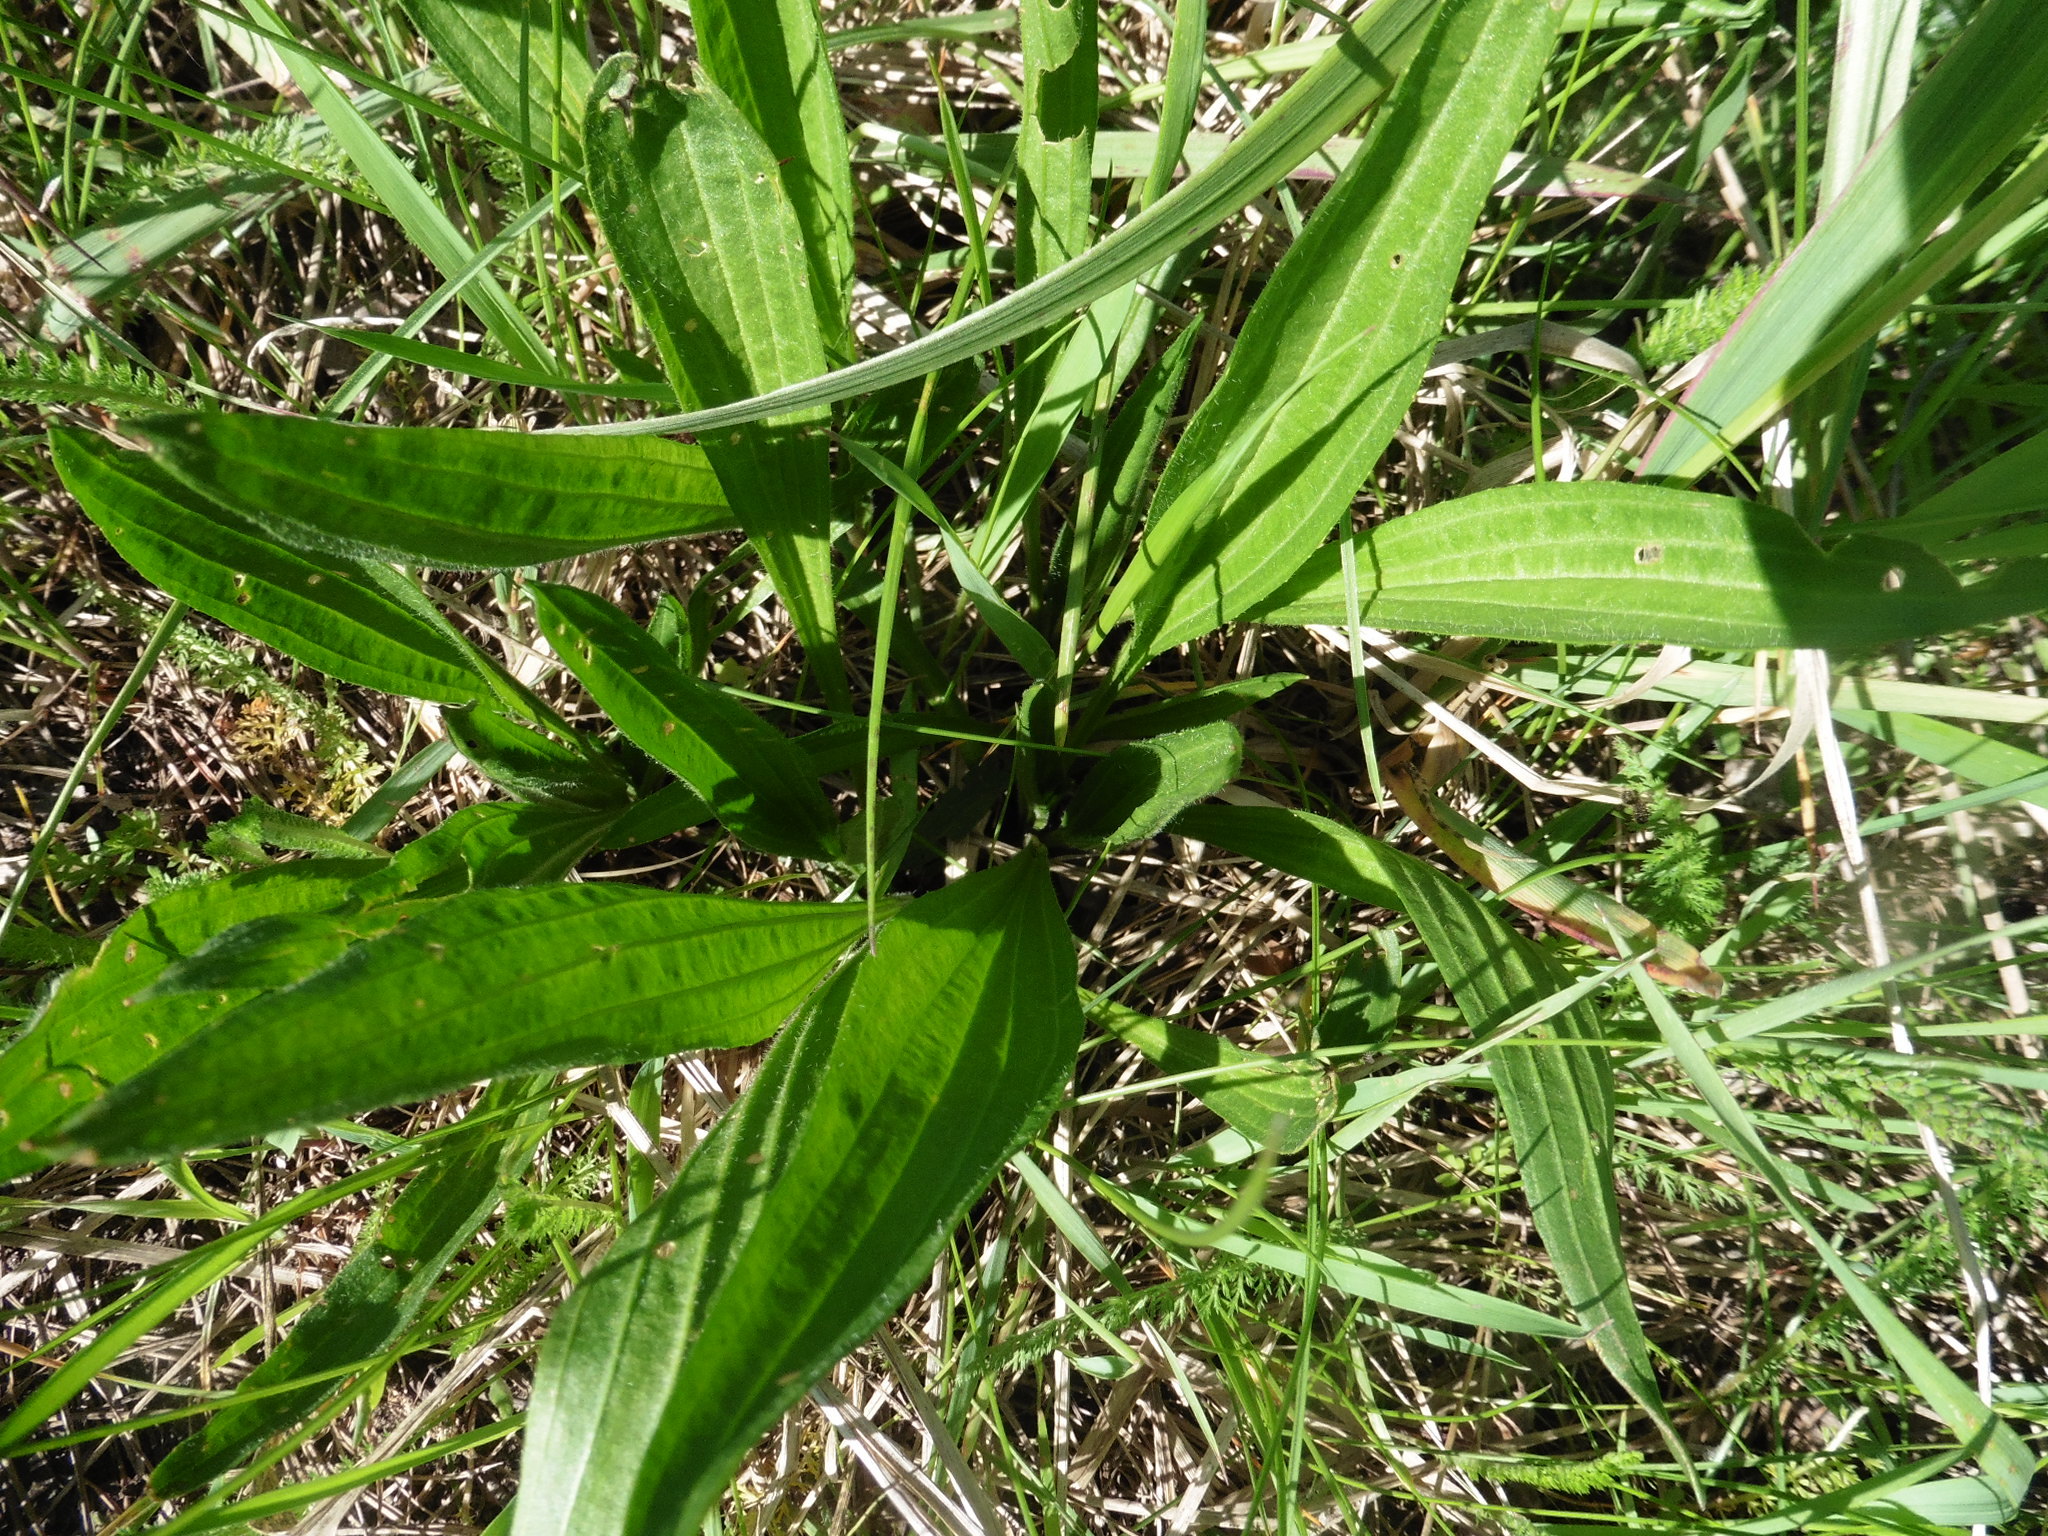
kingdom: Plantae
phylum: Tracheophyta
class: Magnoliopsida
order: Lamiales
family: Plantaginaceae
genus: Plantago
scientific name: Plantago lanceolata
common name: Ribwort plantain
